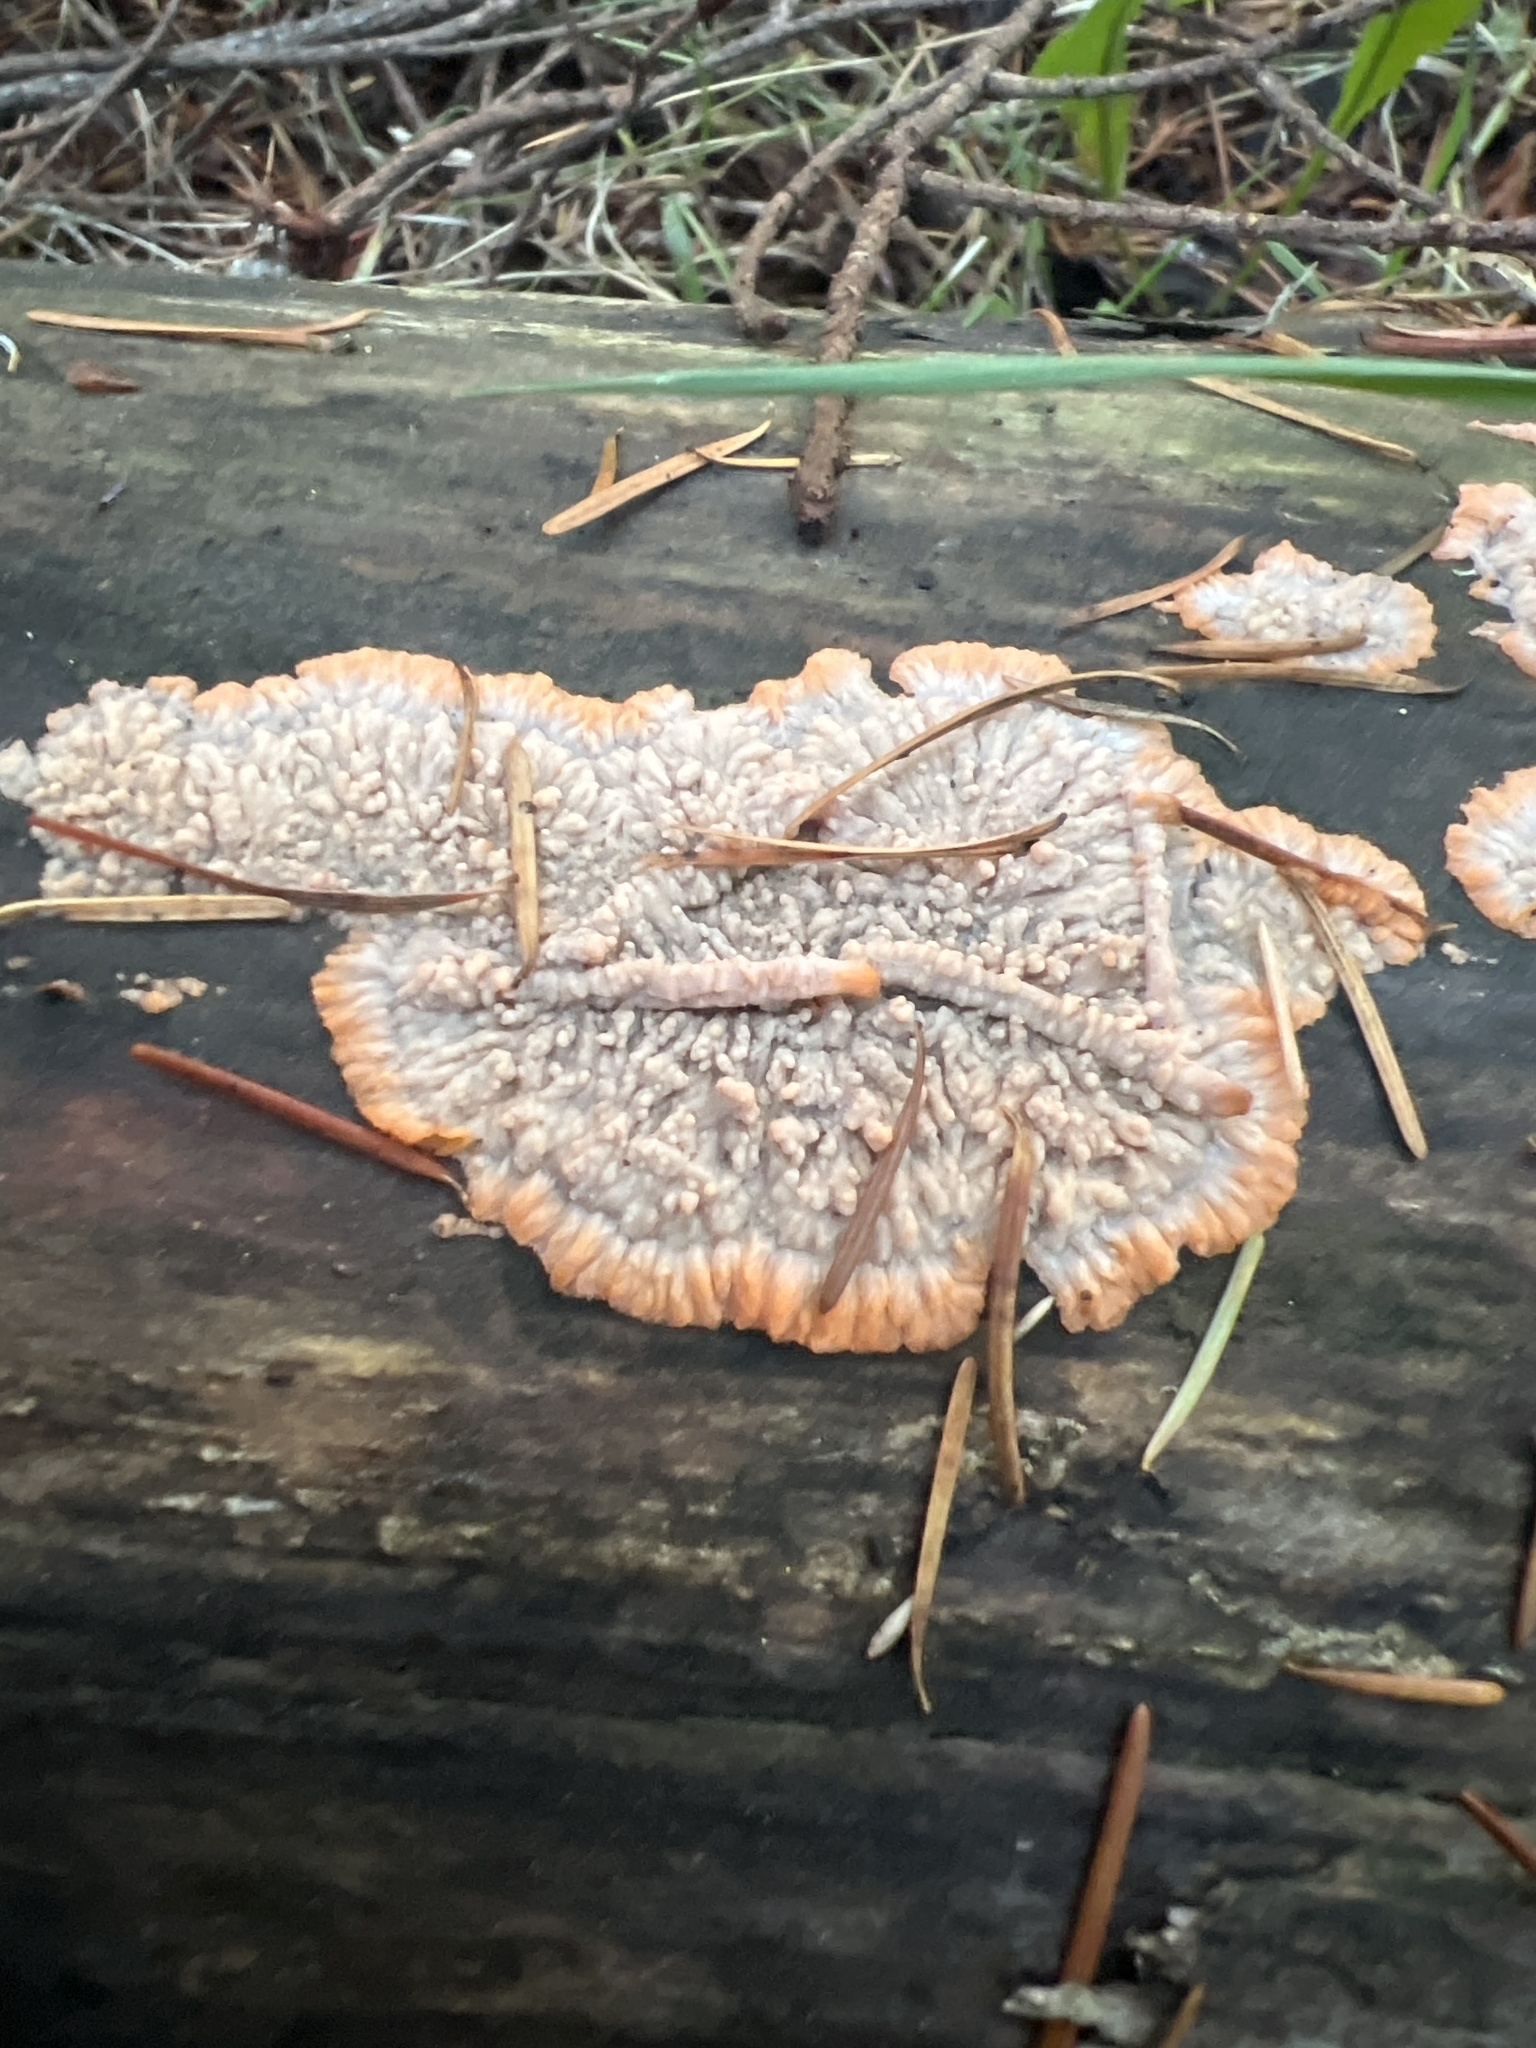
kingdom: Fungi
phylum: Basidiomycota
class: Agaricomycetes
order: Polyporales
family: Meruliaceae
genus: Phlebia
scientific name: Phlebia radiata
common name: Wrinkled crust
